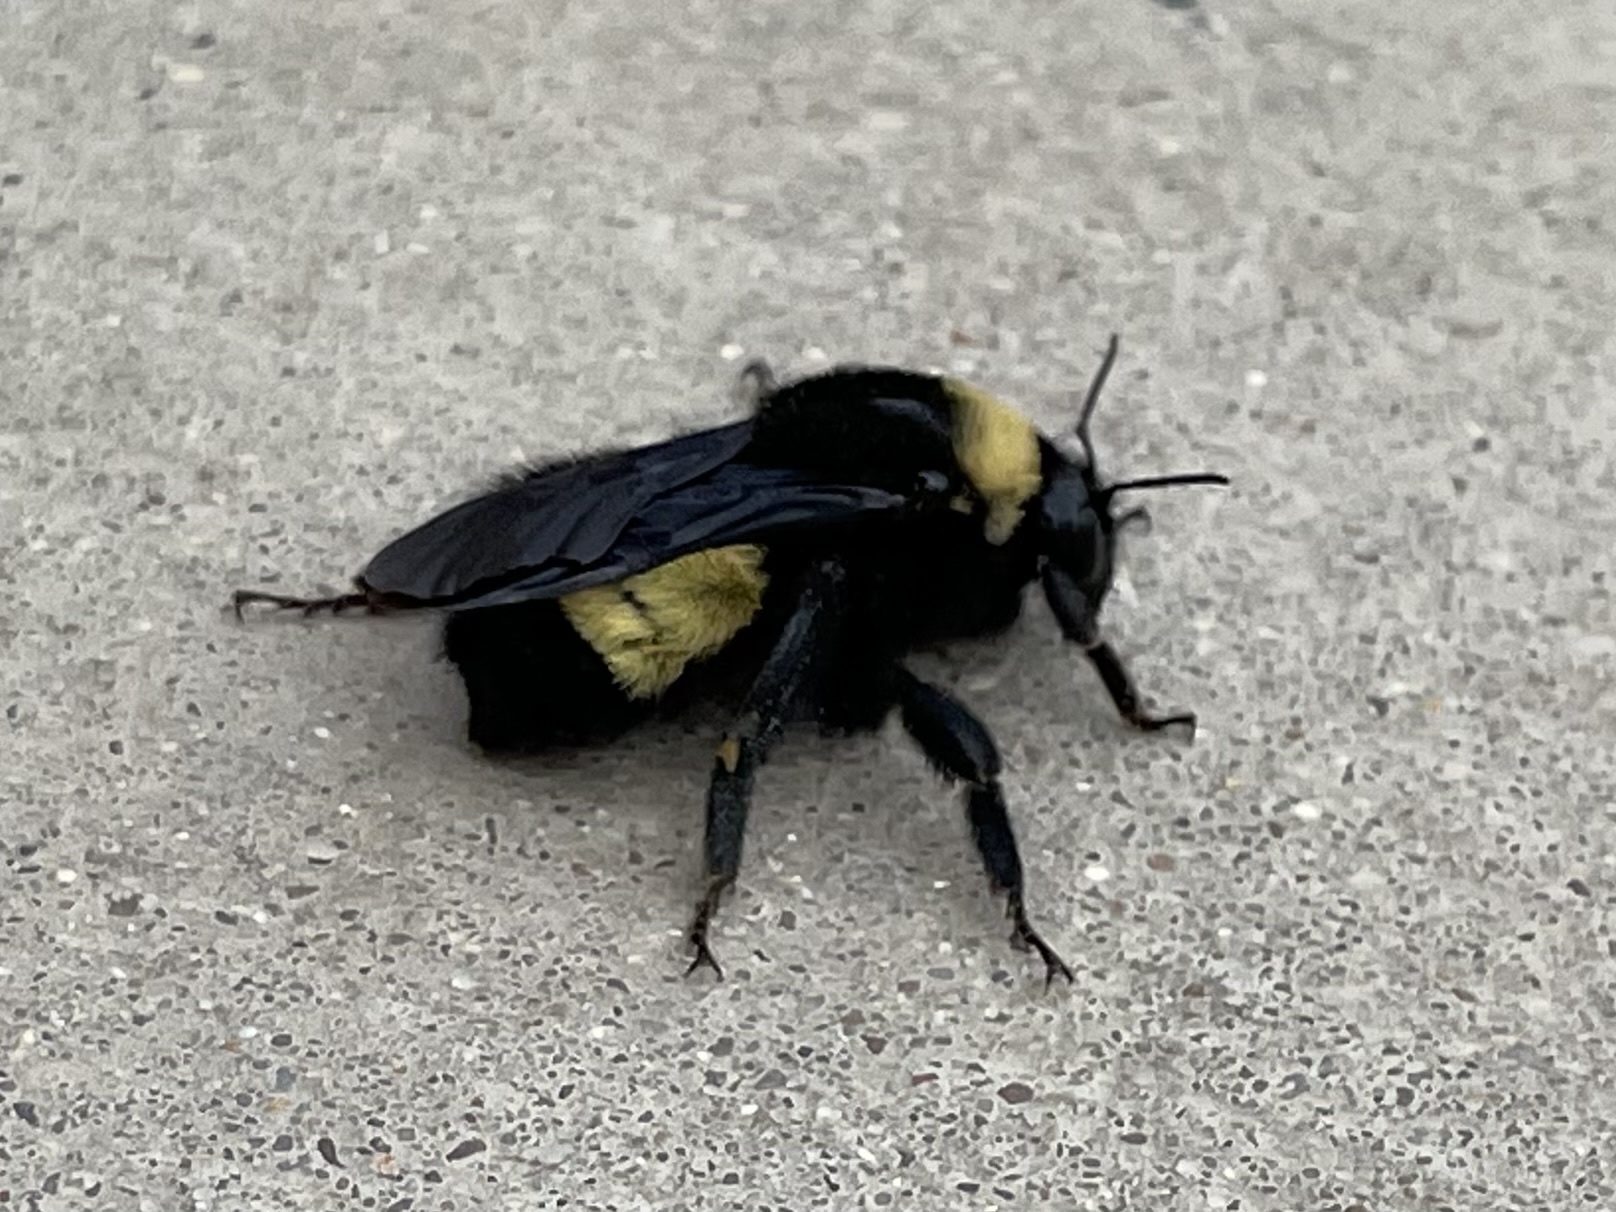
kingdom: Animalia
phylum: Arthropoda
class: Insecta
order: Hymenoptera
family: Apidae
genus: Bombus
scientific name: Bombus pensylvanicus
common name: Bumble bee
